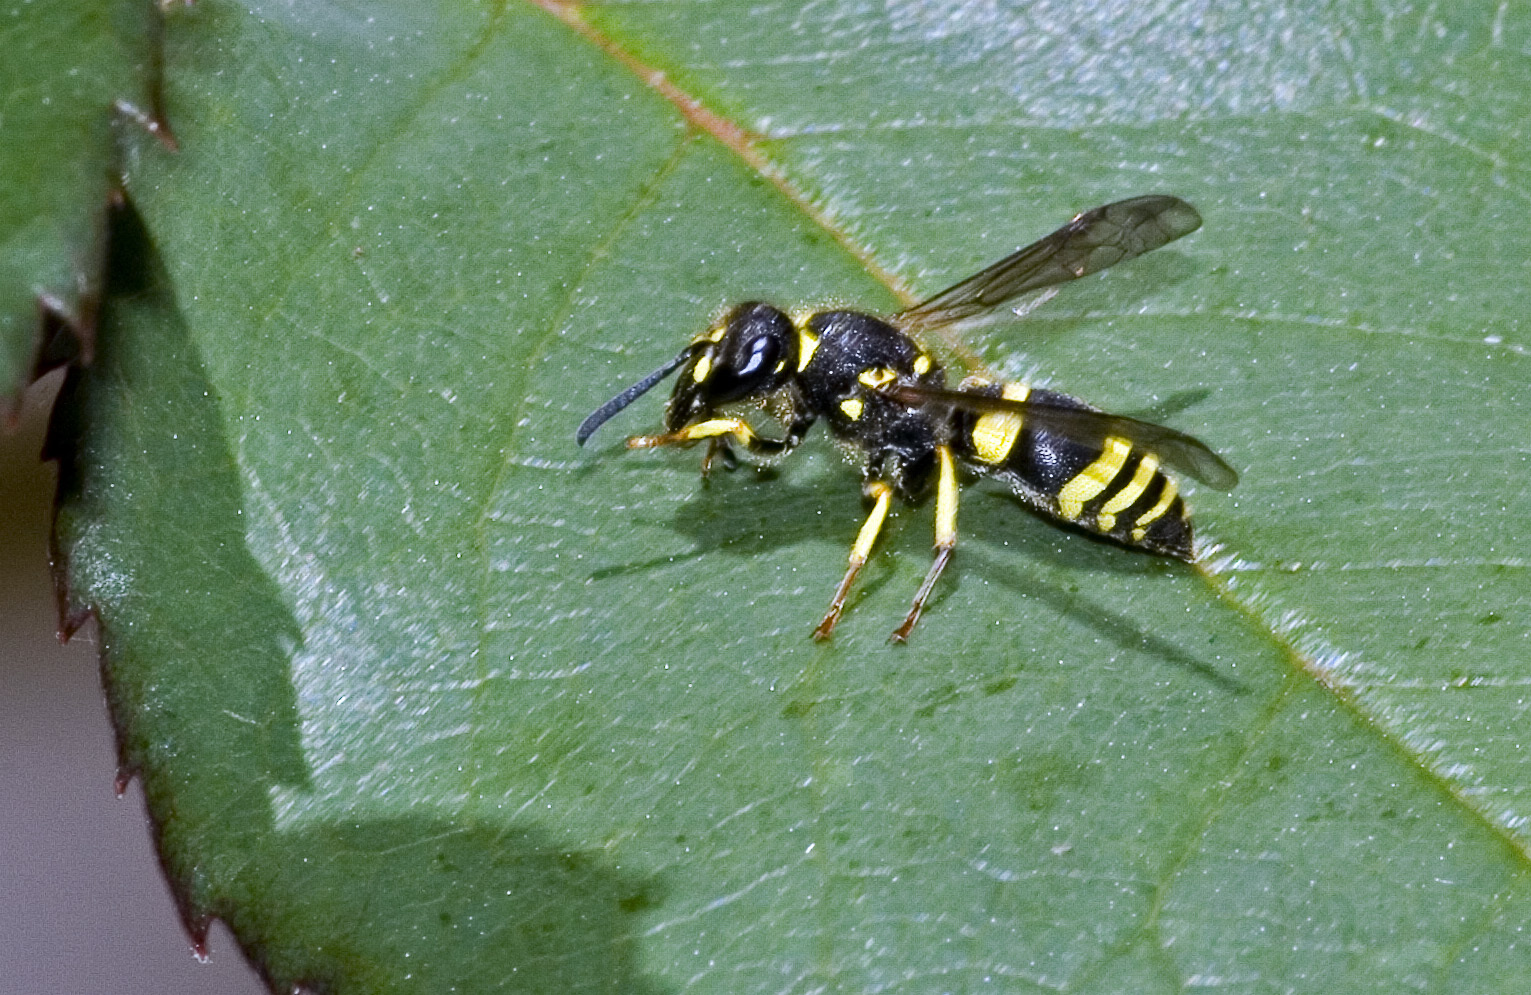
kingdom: Animalia
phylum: Arthropoda
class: Insecta
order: Hymenoptera
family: Vespidae
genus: Ancistrocerus
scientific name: Ancistrocerus gazella
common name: European tube wasp
